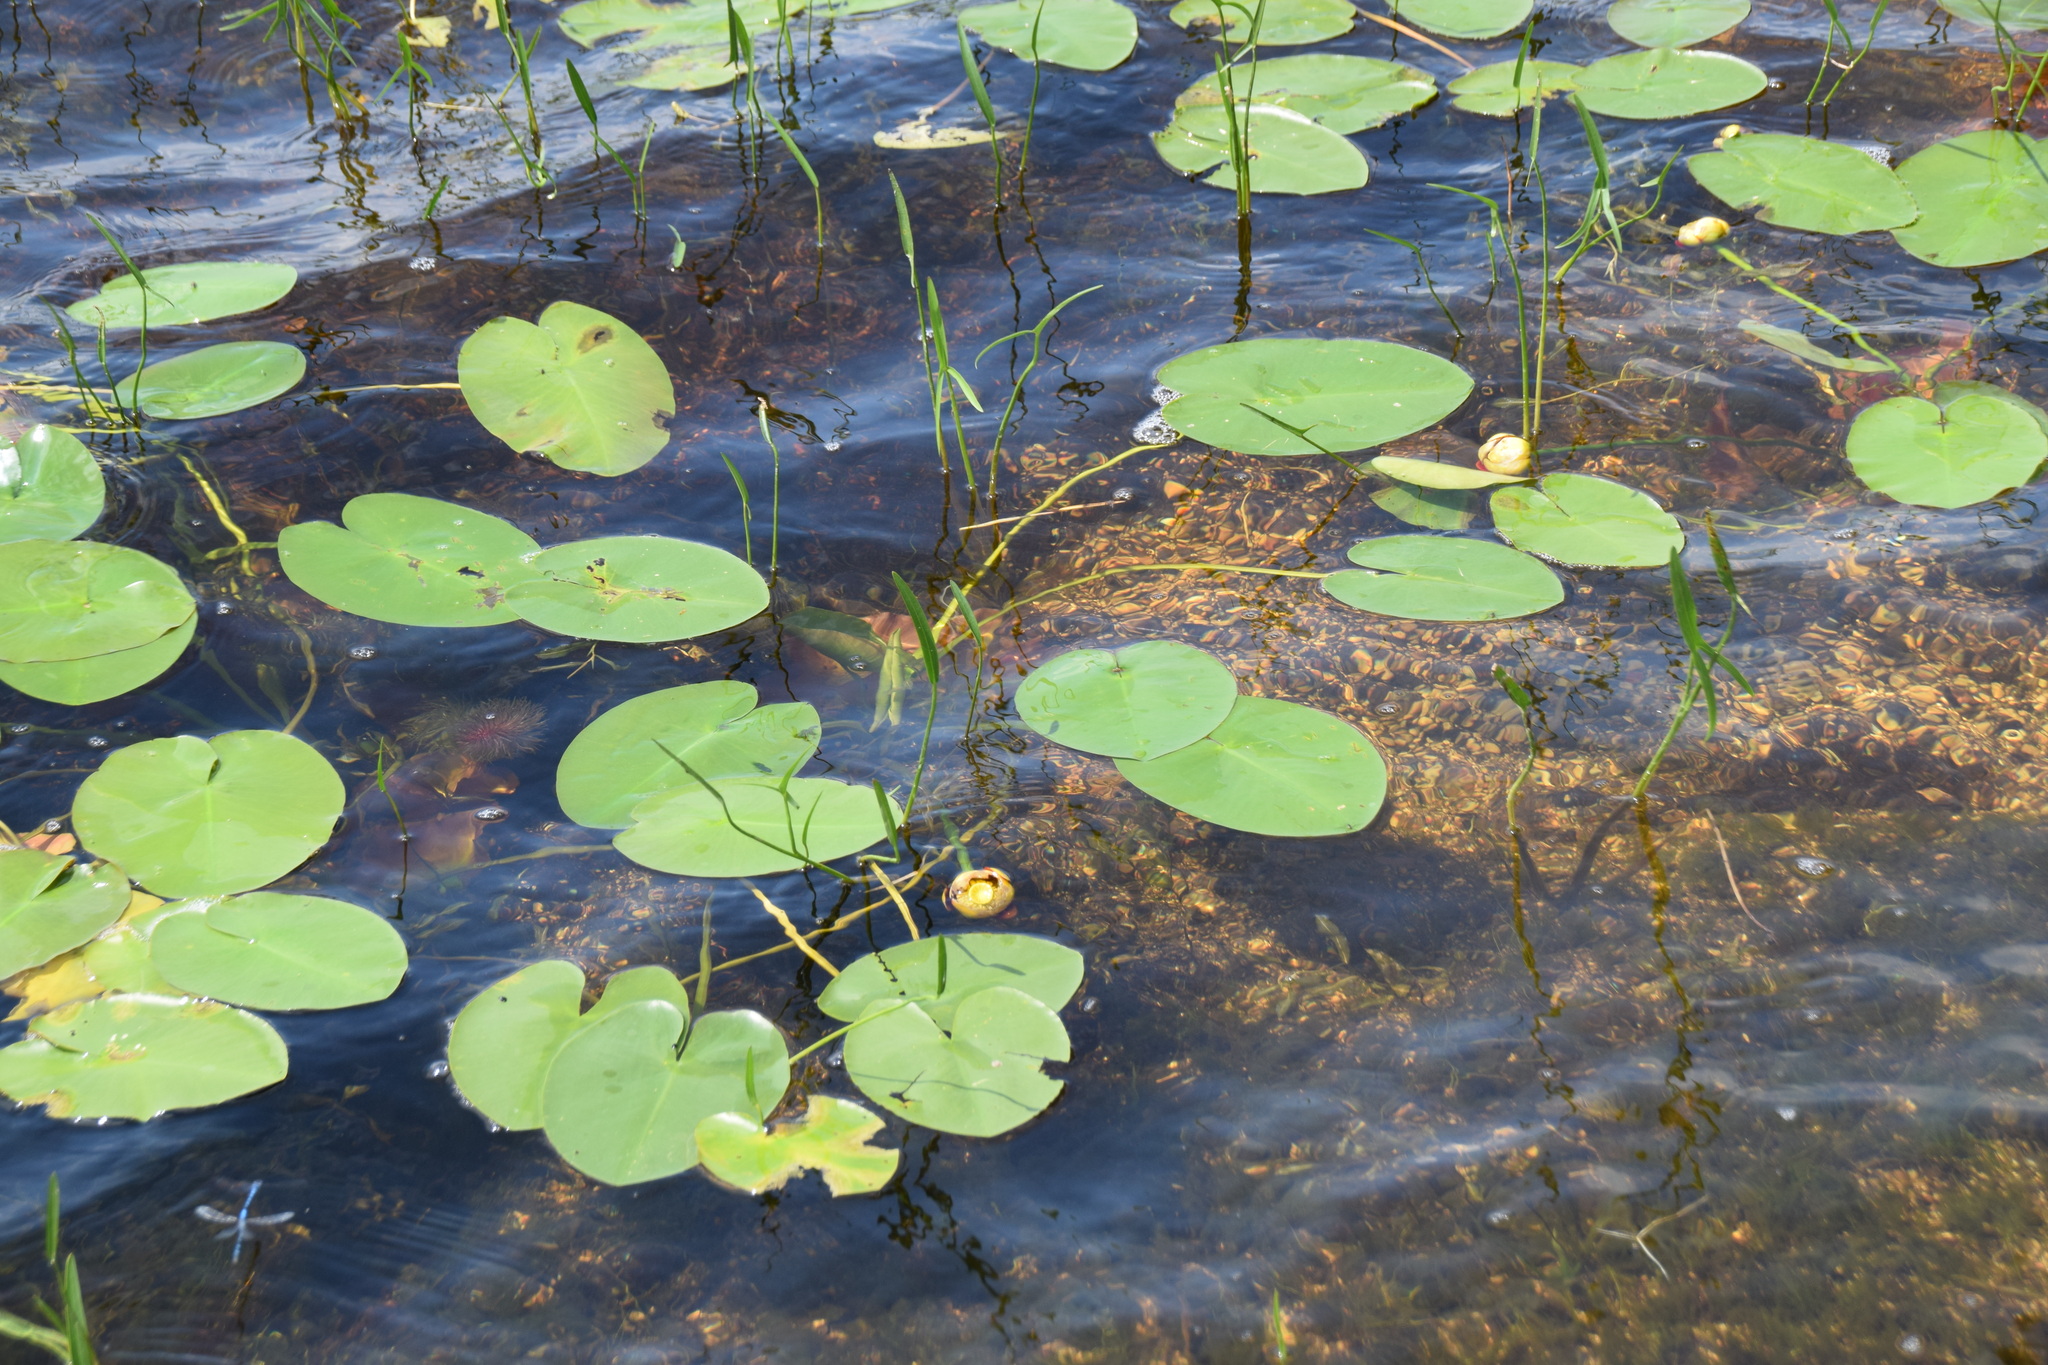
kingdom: Plantae
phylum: Tracheophyta
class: Magnoliopsida
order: Nymphaeales
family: Nymphaeaceae
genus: Nuphar
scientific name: Nuphar variegata
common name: Beaver-root
